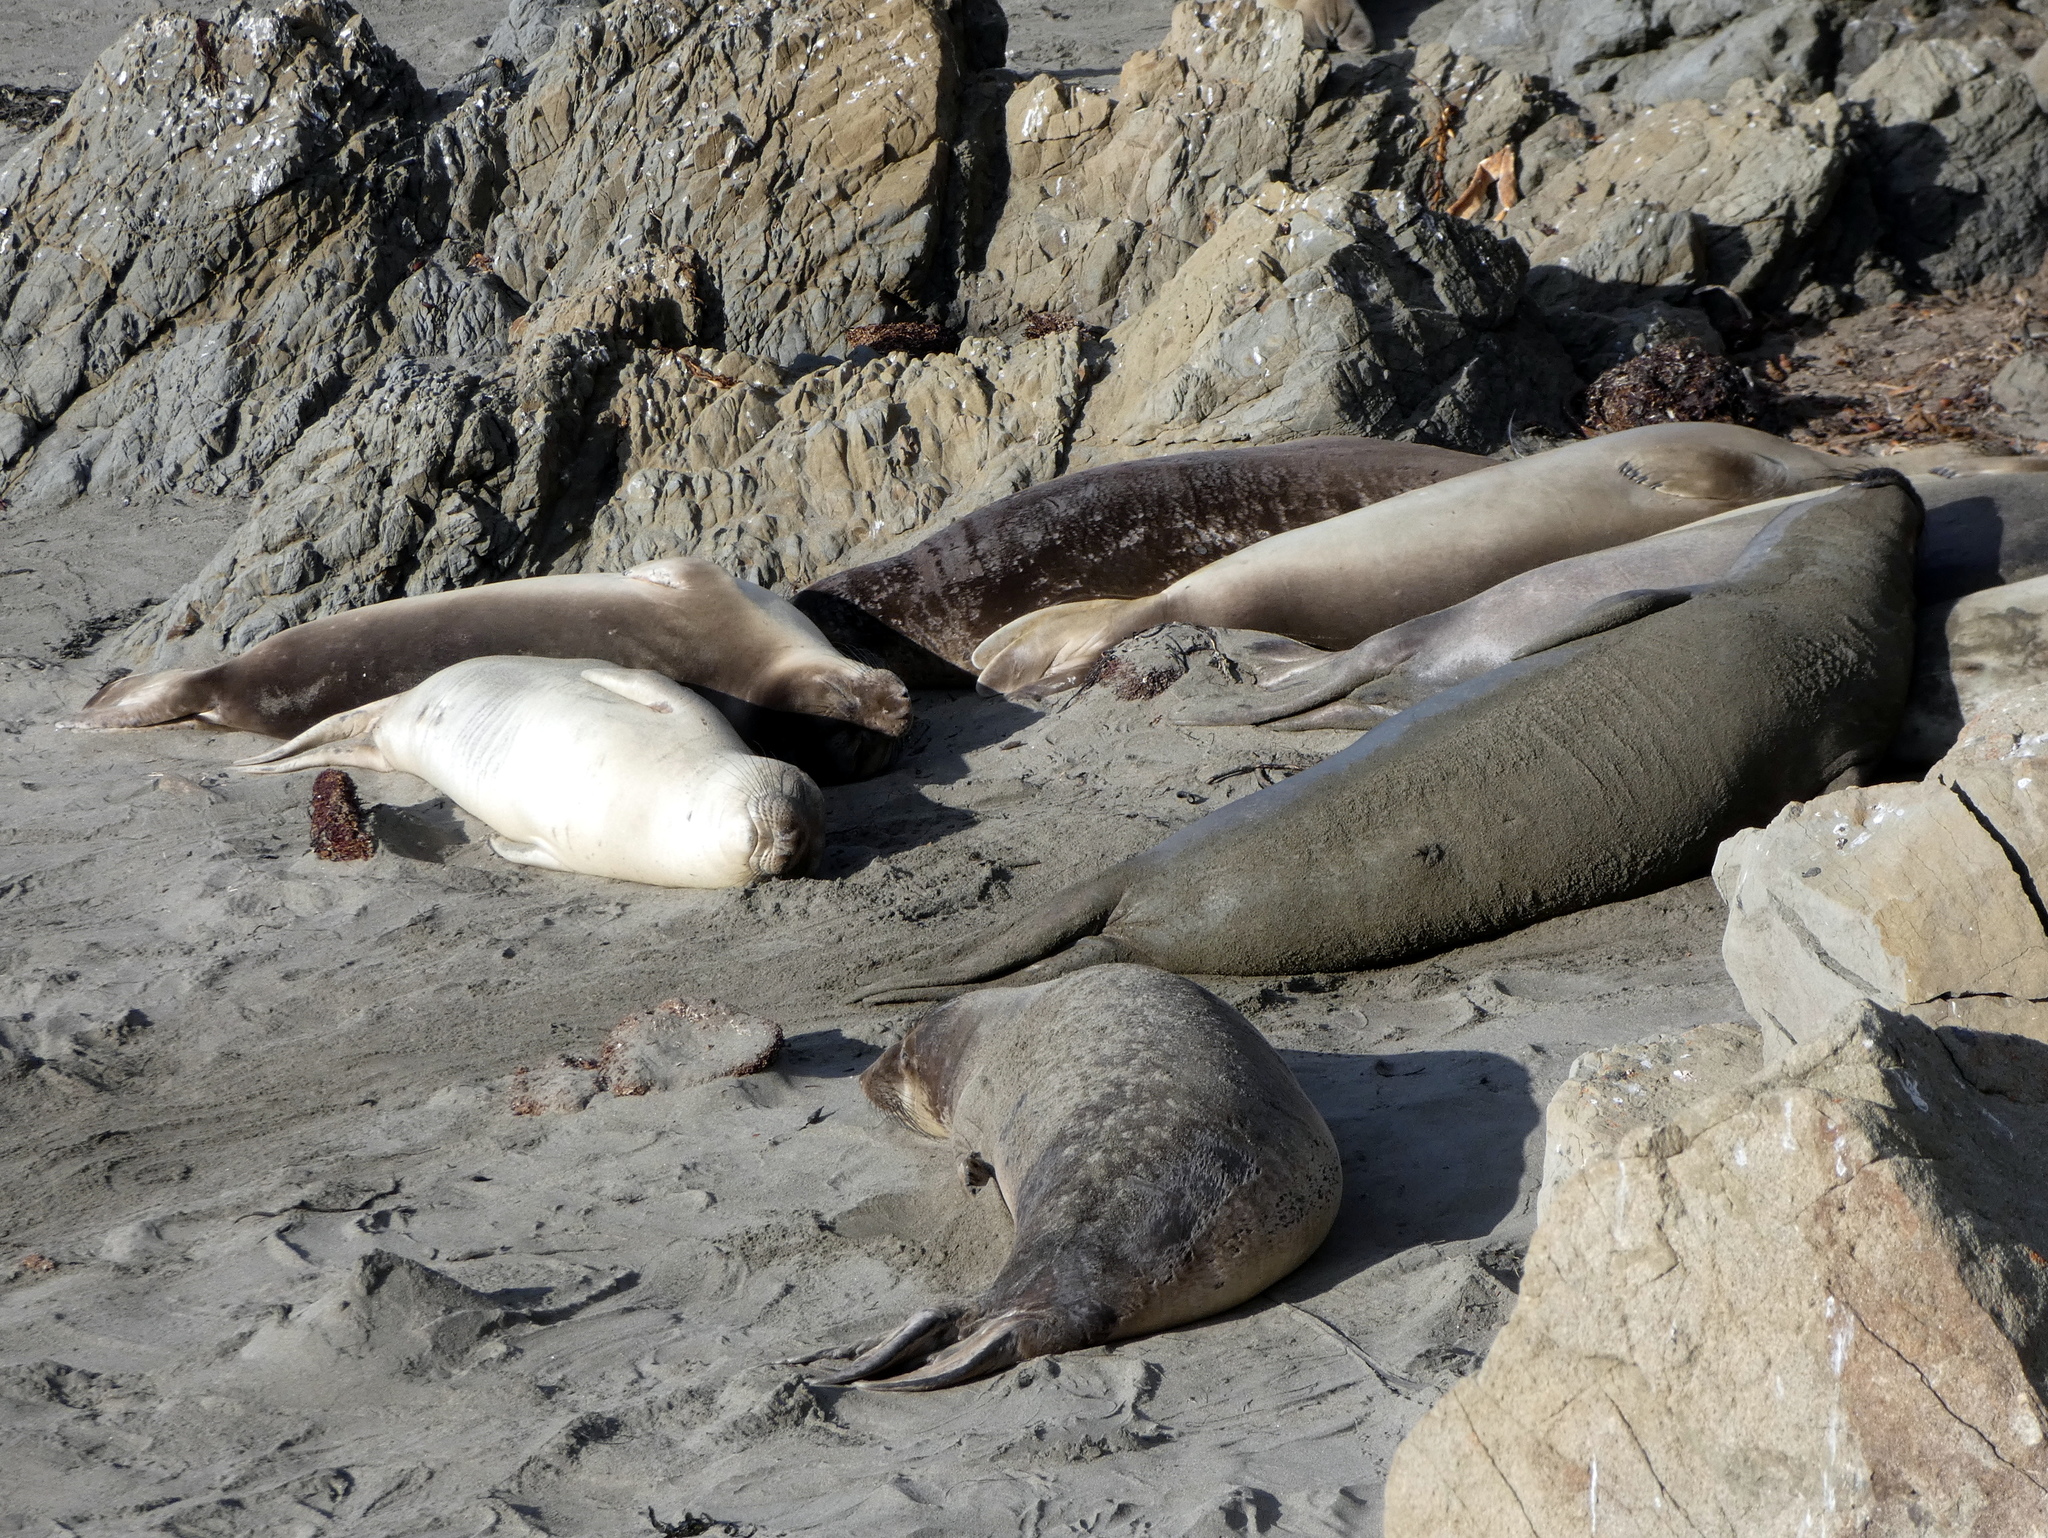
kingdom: Animalia
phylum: Chordata
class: Mammalia
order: Carnivora
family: Phocidae
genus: Mirounga
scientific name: Mirounga angustirostris
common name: Northern elephant seal
